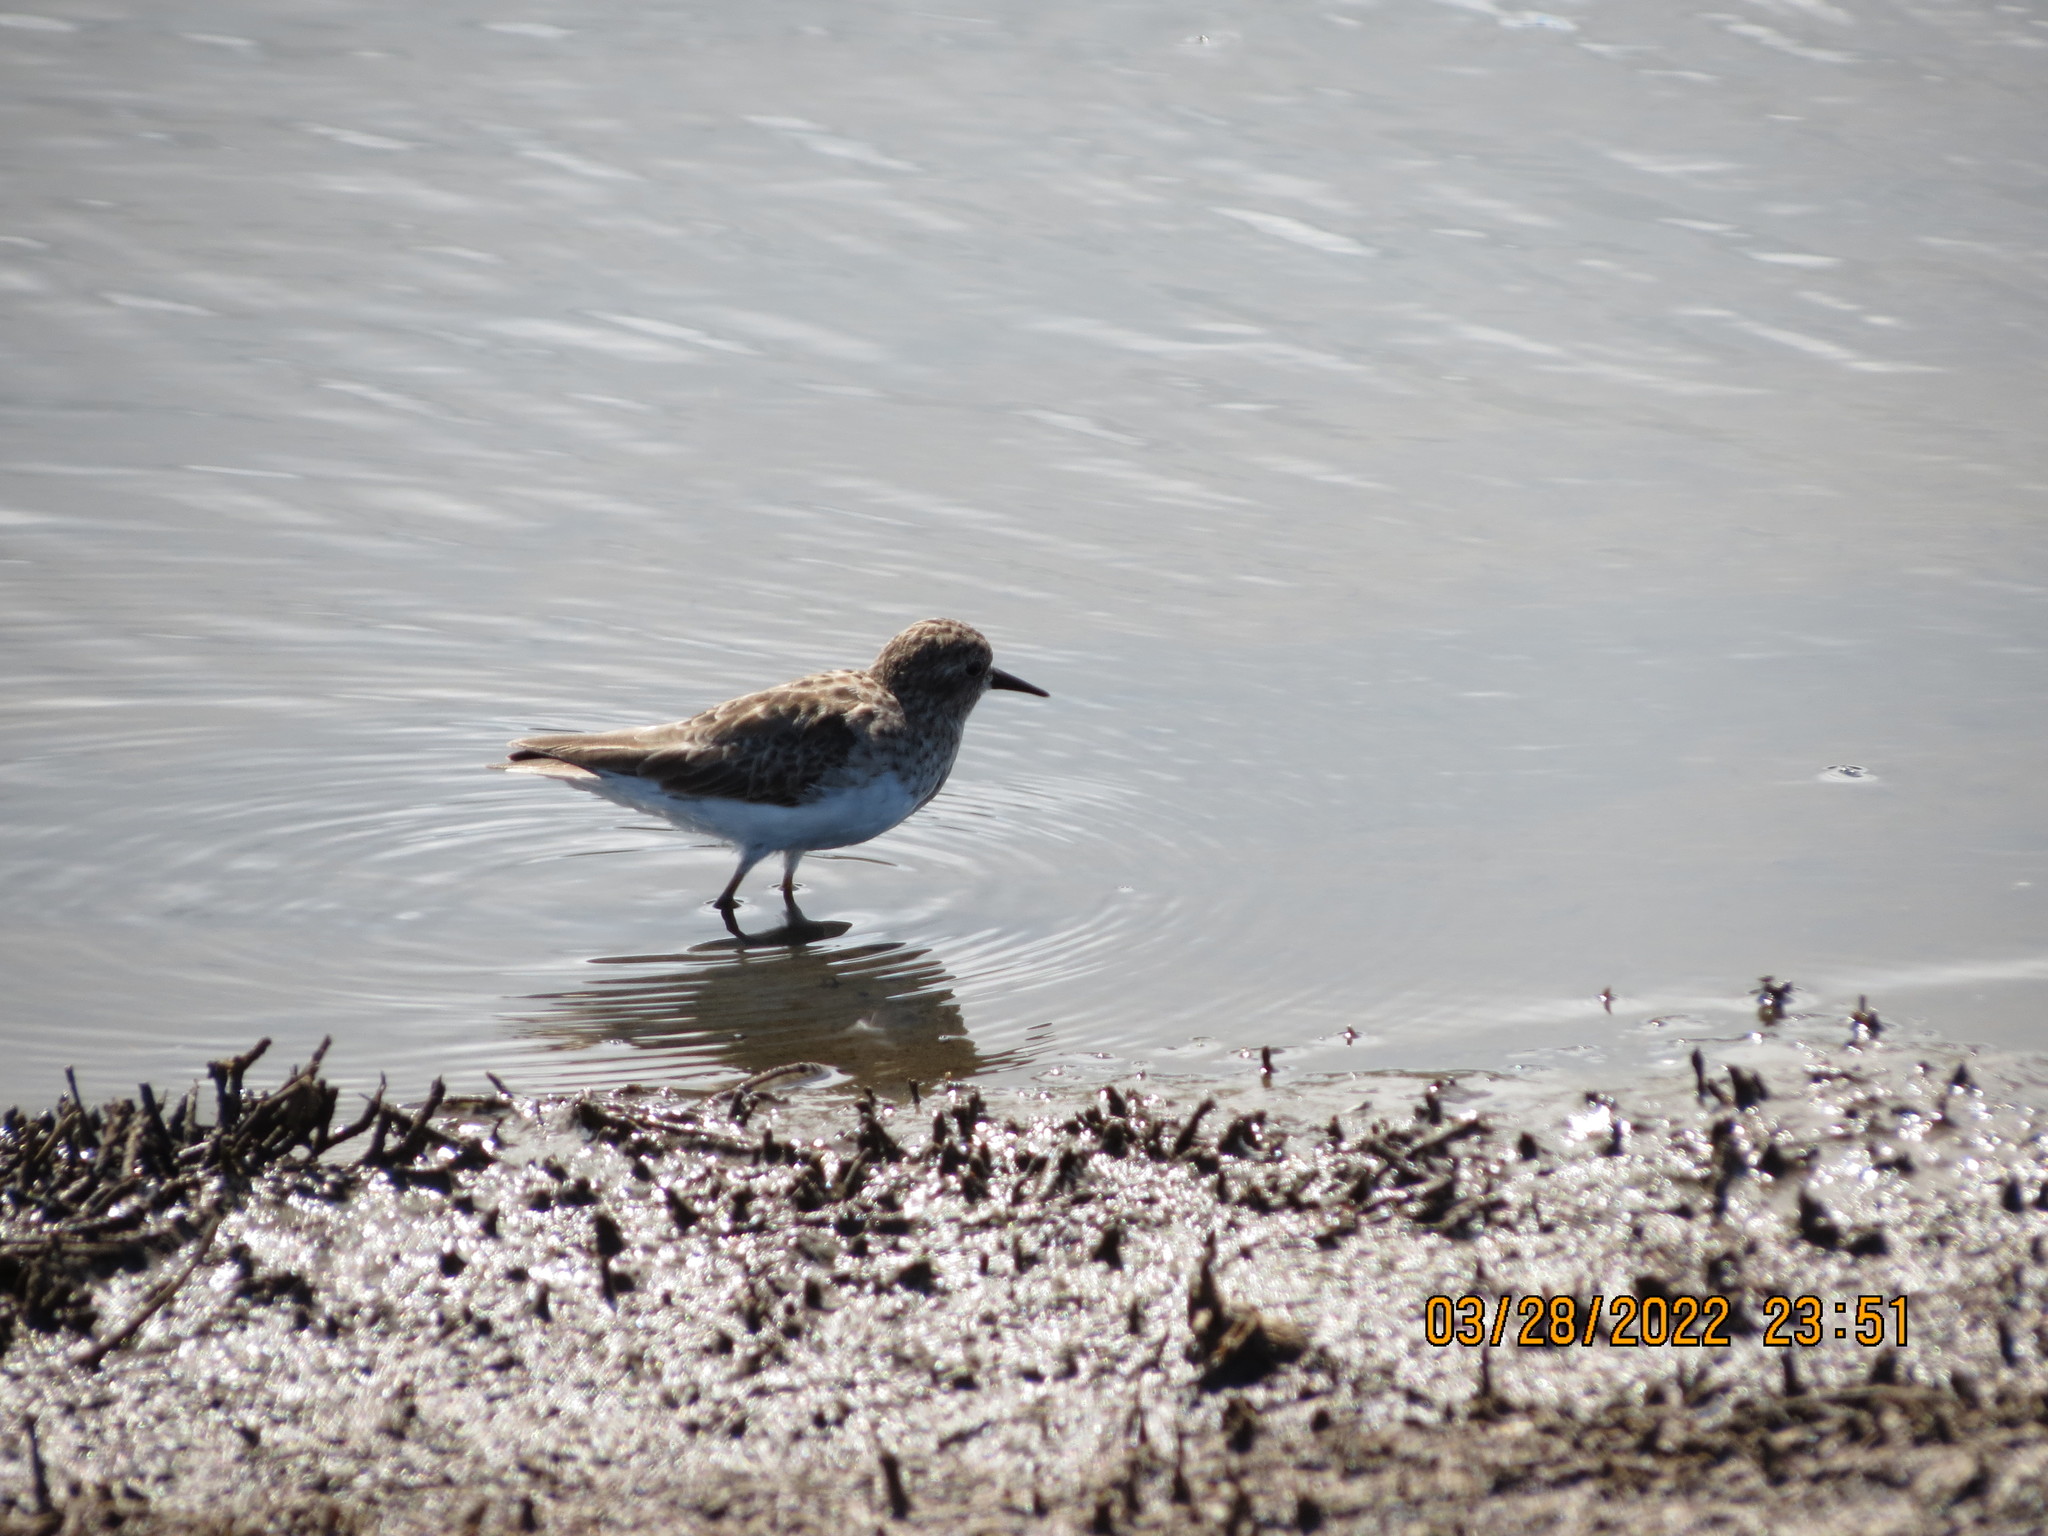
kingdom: Animalia
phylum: Chordata
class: Aves
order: Charadriiformes
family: Scolopacidae
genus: Calidris
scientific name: Calidris minutilla
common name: Least sandpiper
